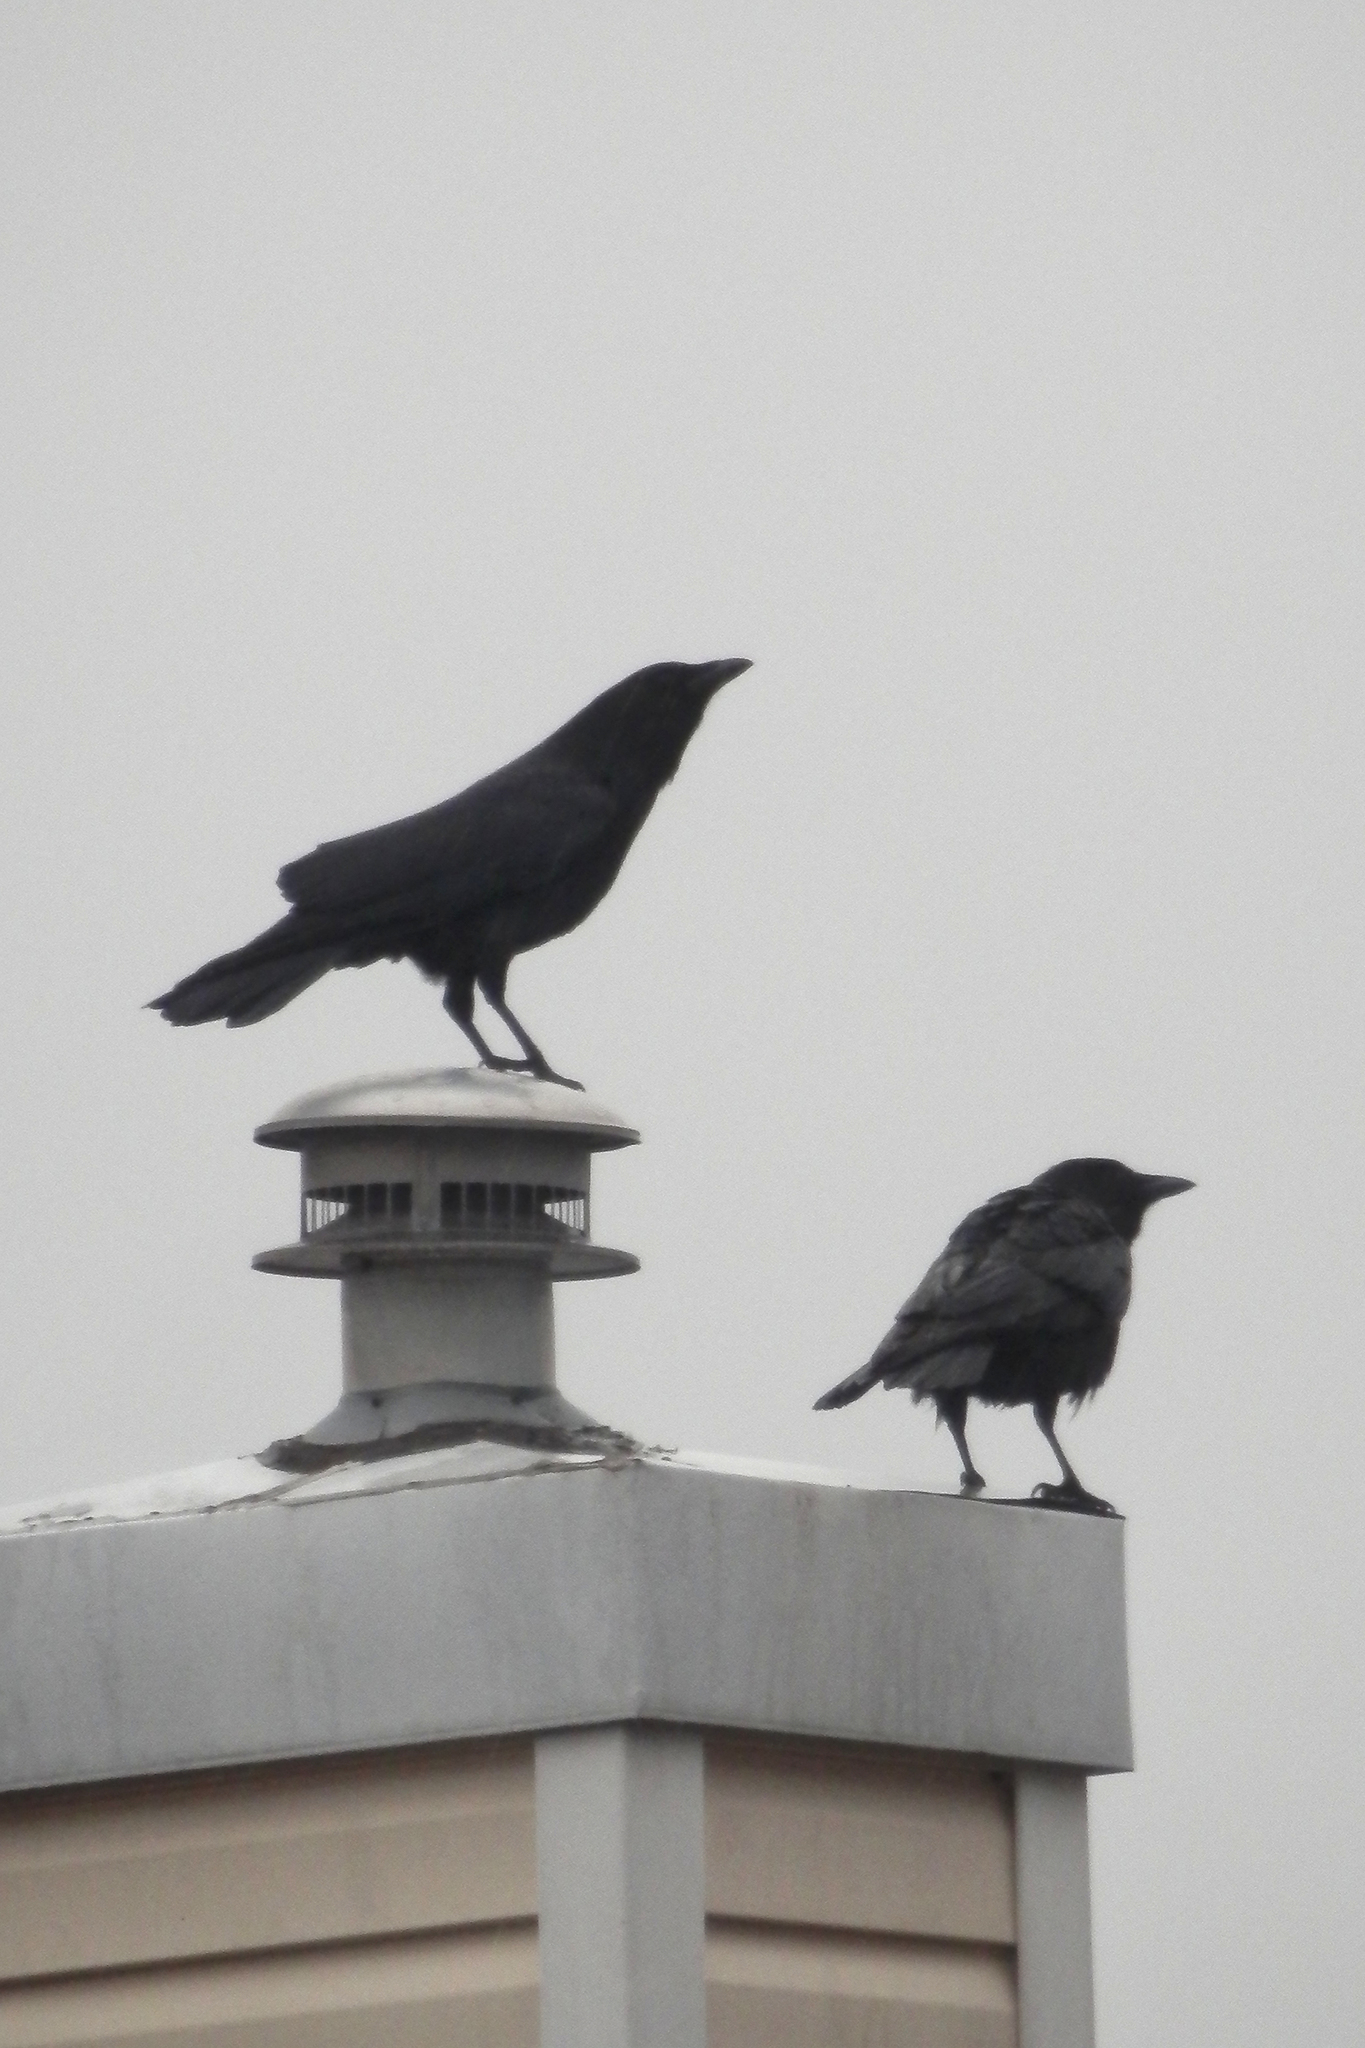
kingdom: Animalia
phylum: Chordata
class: Aves
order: Passeriformes
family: Corvidae
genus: Corvus
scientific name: Corvus brachyrhynchos
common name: American crow
